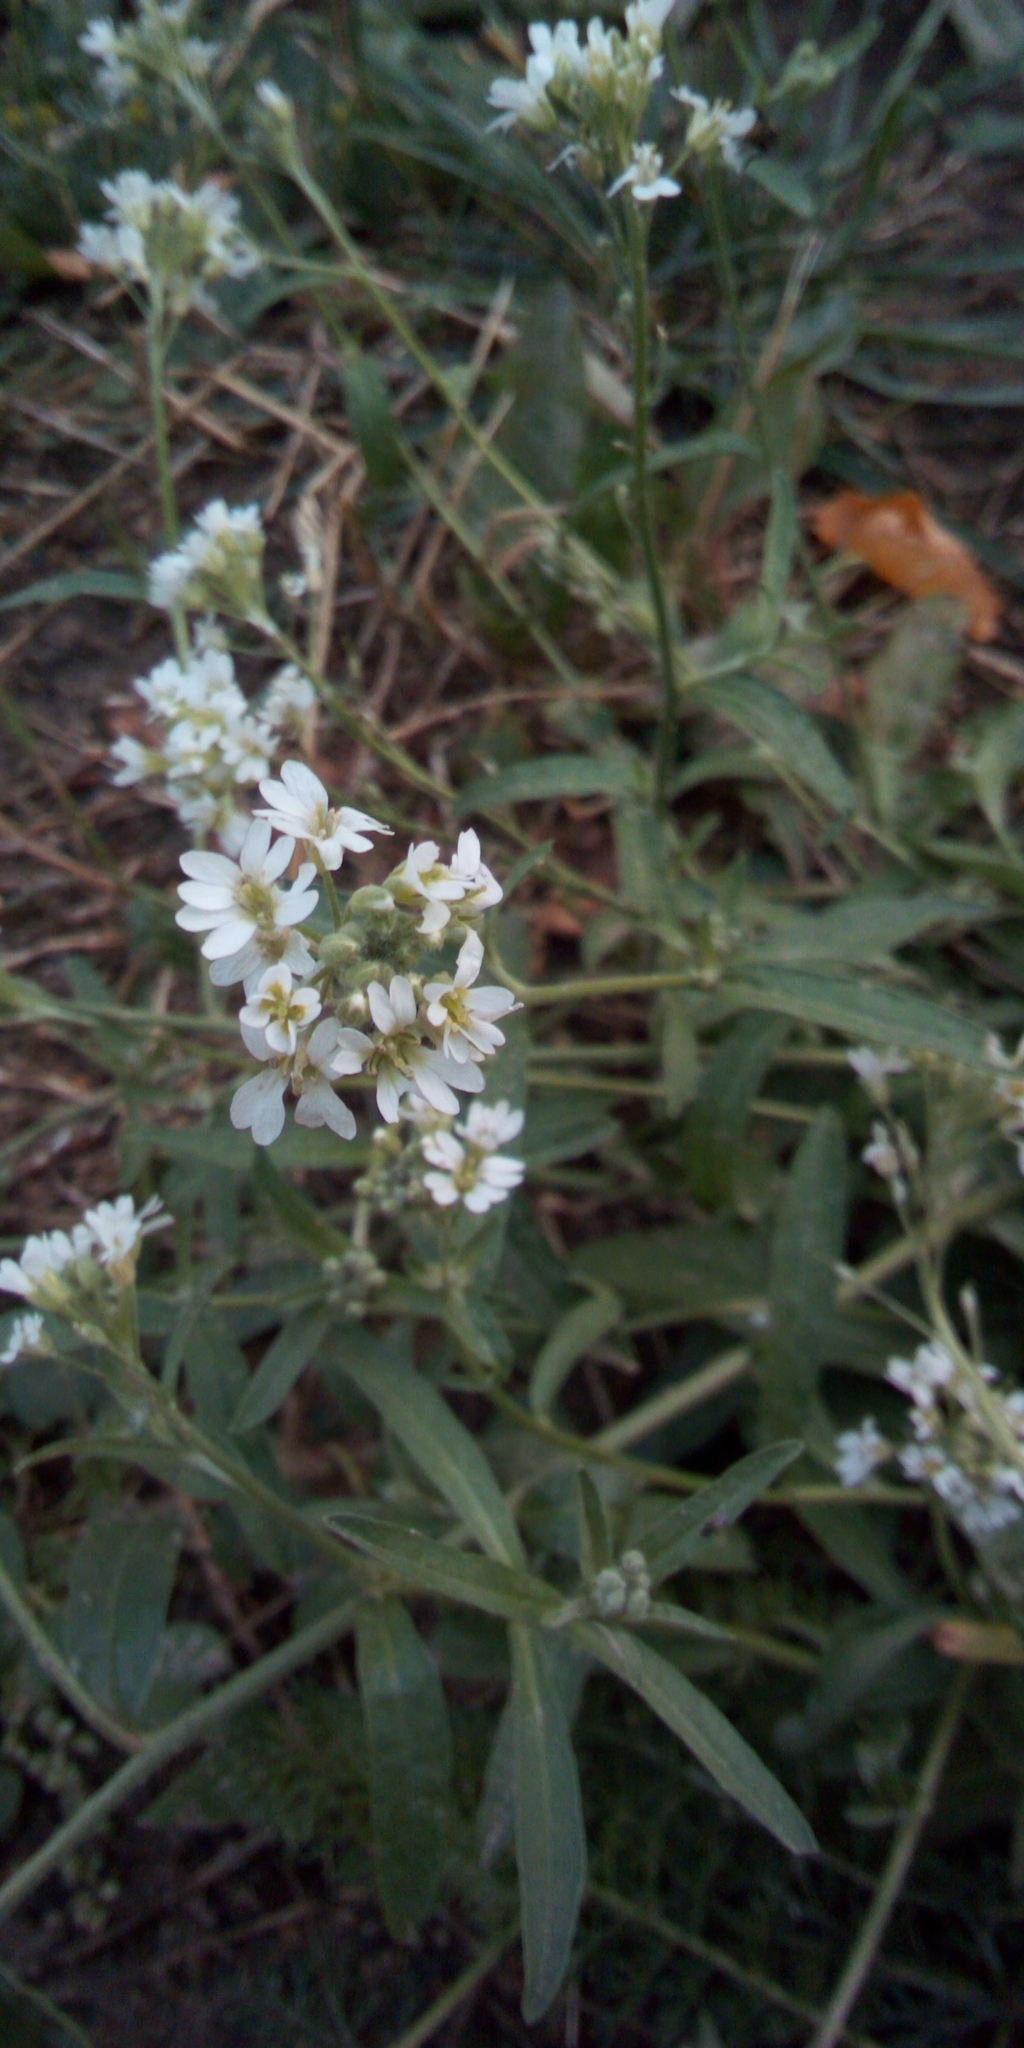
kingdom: Plantae
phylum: Tracheophyta
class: Magnoliopsida
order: Brassicales
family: Brassicaceae
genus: Berteroa
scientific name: Berteroa incana
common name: Hoary alison
